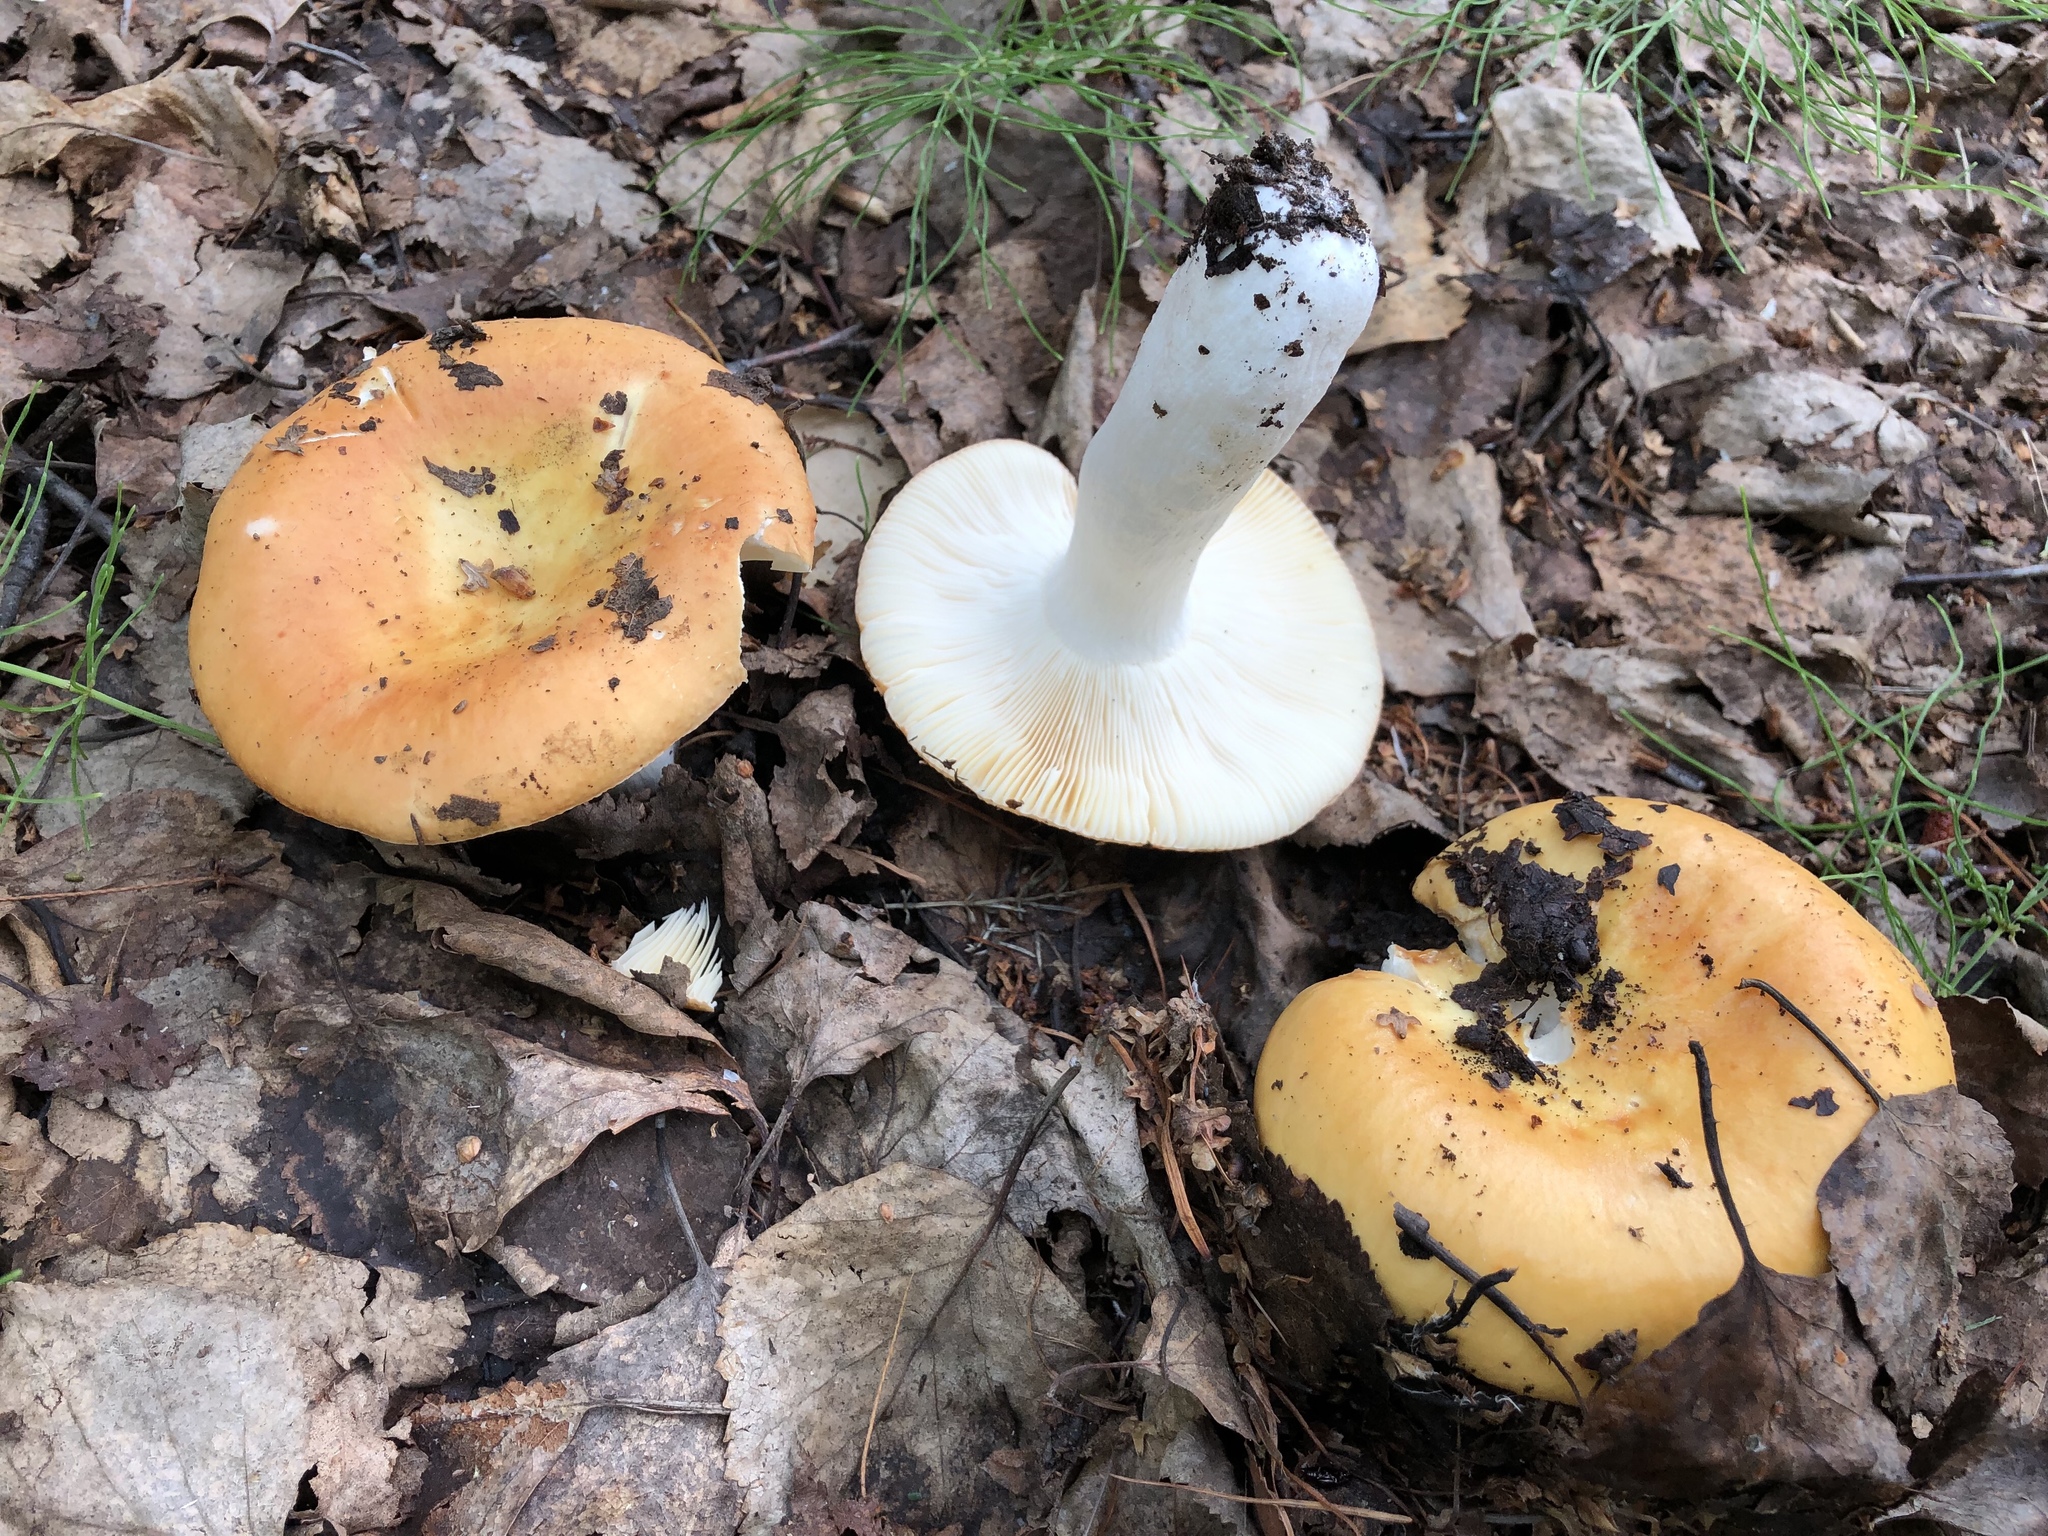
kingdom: Fungi
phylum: Basidiomycota
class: Agaricomycetes
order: Russulales
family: Russulaceae
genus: Russula
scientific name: Russula decolorans
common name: Copper brittlegill
